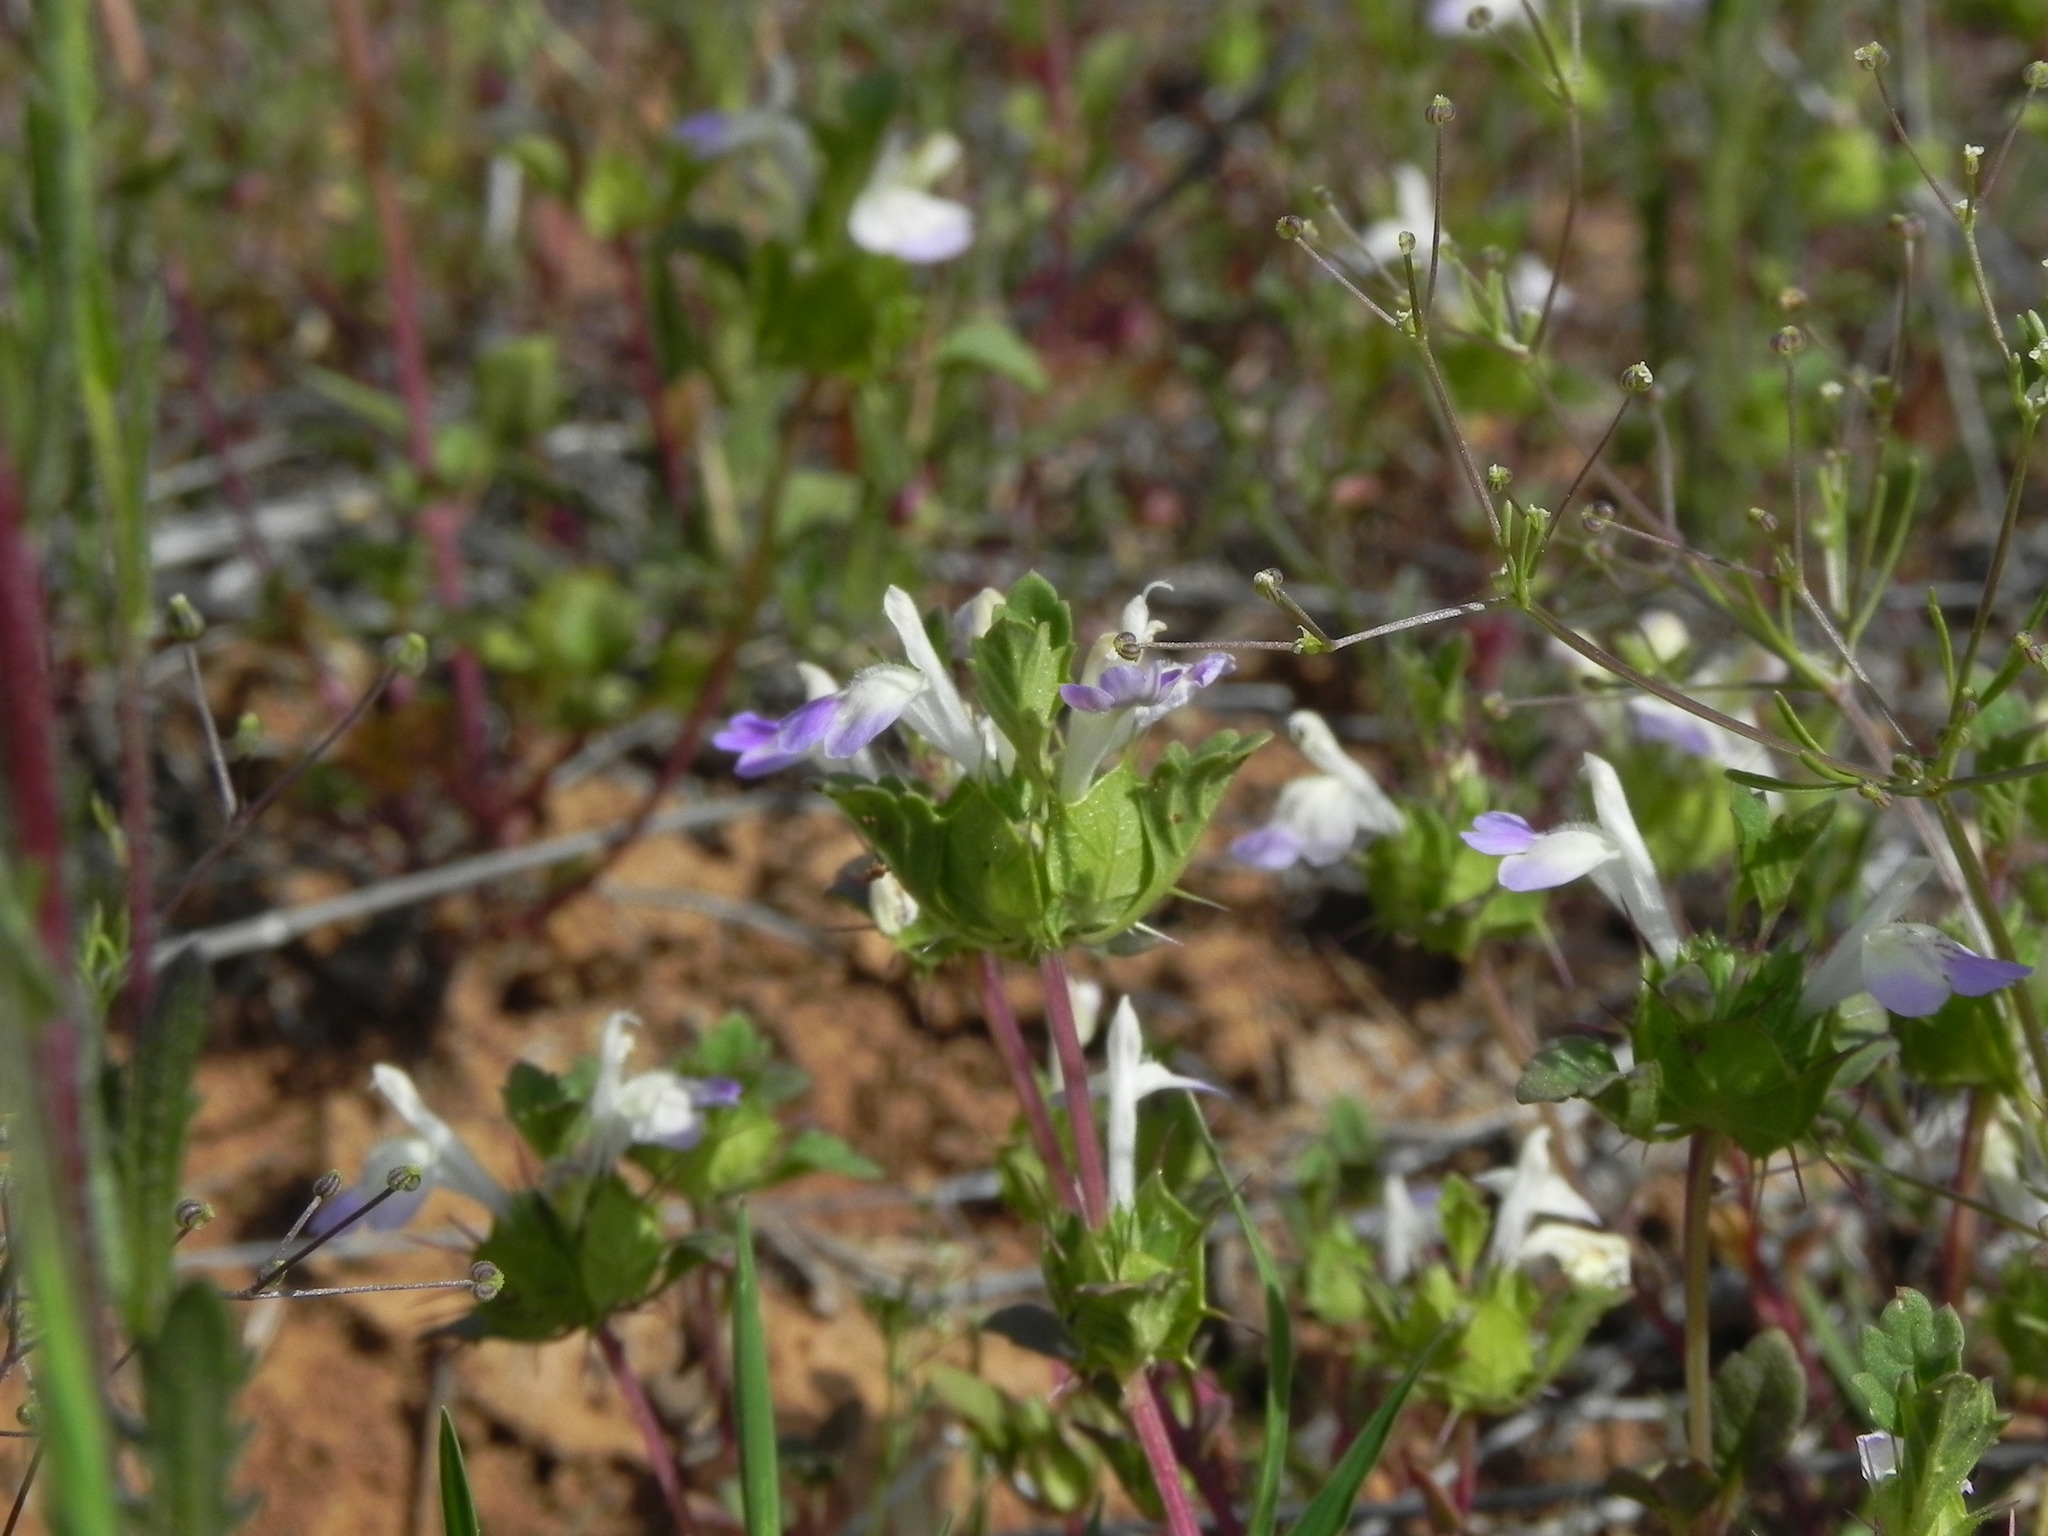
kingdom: Plantae
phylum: Tracheophyta
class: Magnoliopsida
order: Lamiales
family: Lamiaceae
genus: Acanthomintha
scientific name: Acanthomintha ilicifolia
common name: San diego thorn-mint
